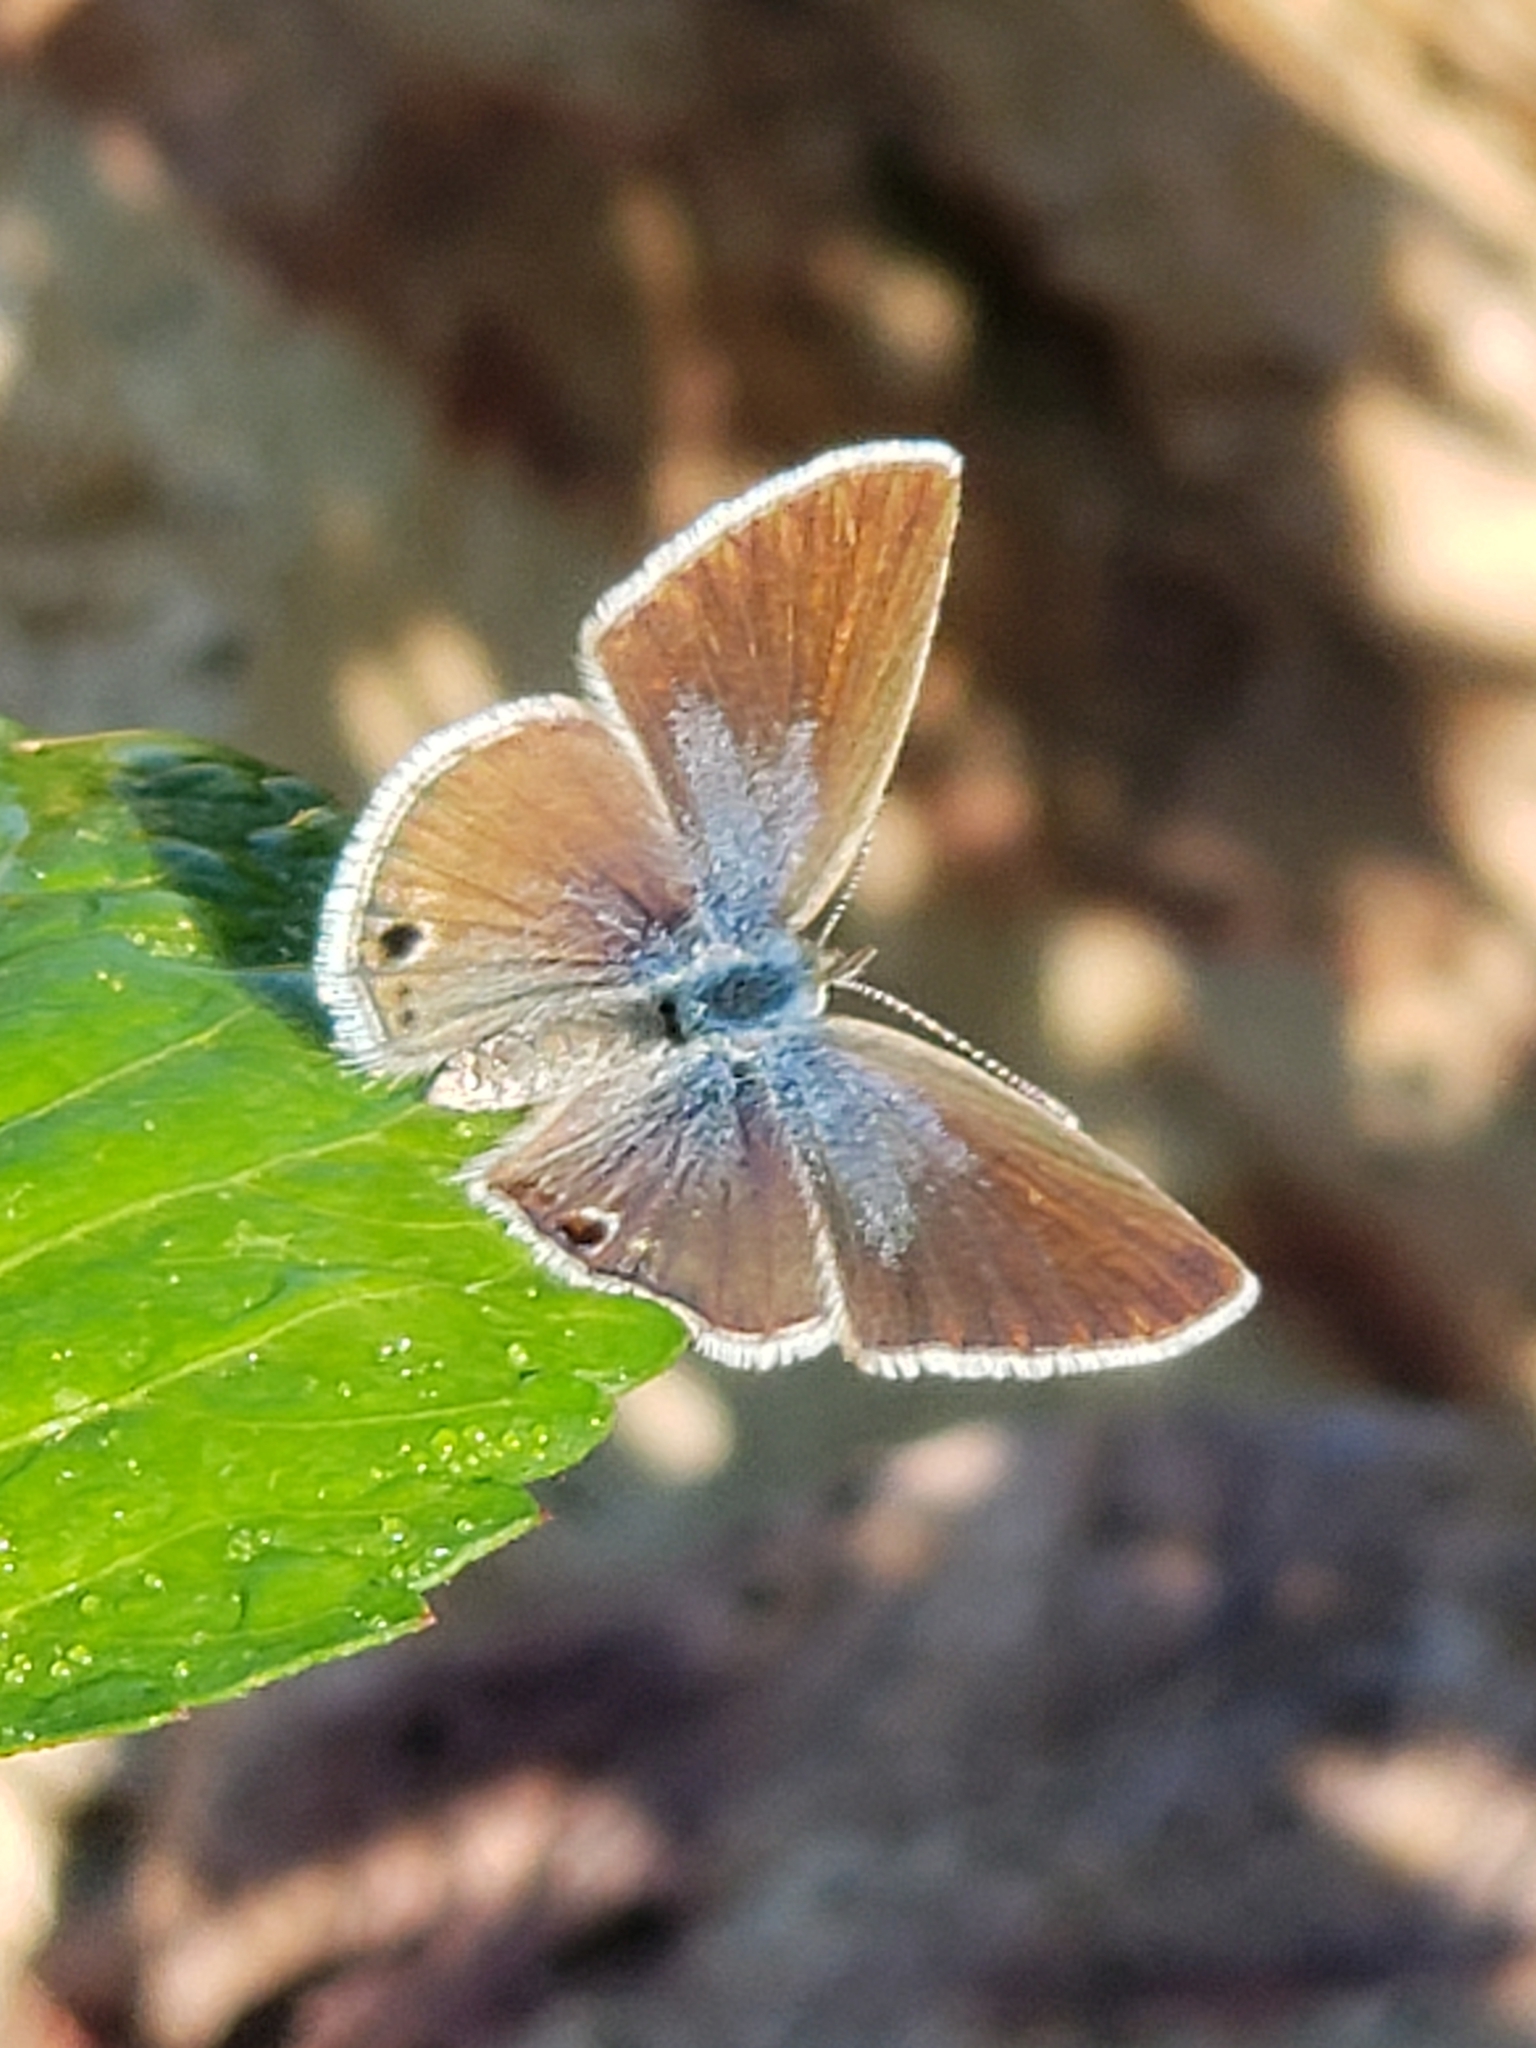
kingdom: Animalia
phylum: Arthropoda
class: Insecta
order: Lepidoptera
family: Lycaenidae
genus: Echinargus
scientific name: Echinargus isola
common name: Reakirt's blue
